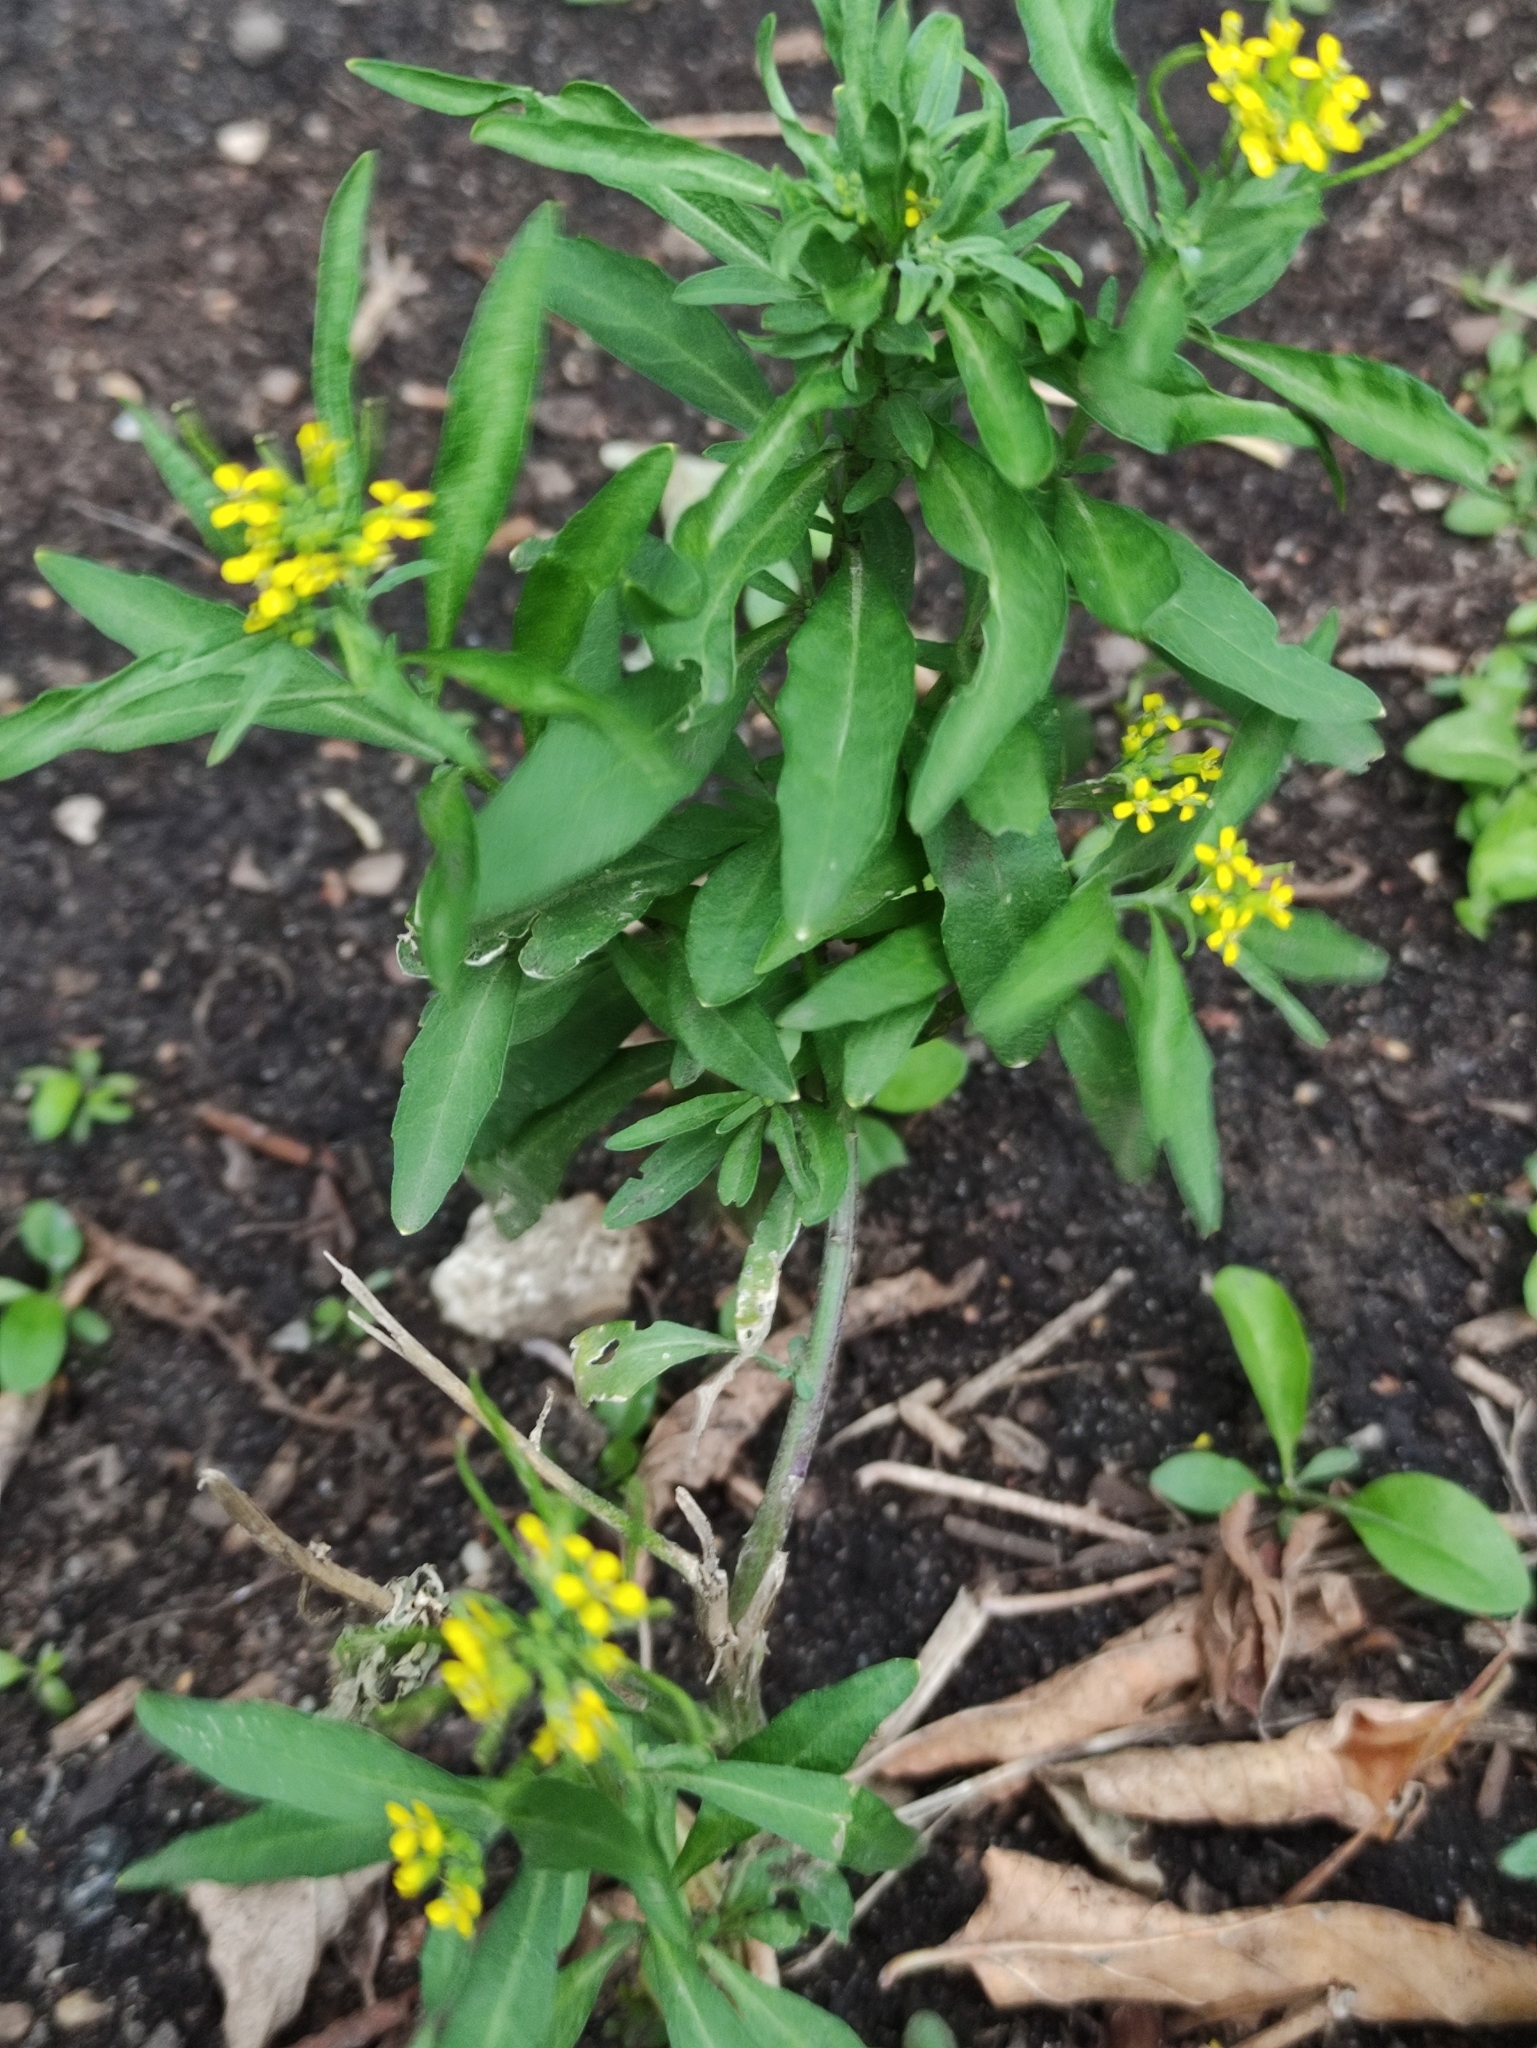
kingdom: Plantae
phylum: Tracheophyta
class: Magnoliopsida
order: Brassicales
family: Brassicaceae
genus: Erysimum
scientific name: Erysimum cheiranthoides
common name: Treacle mustard
